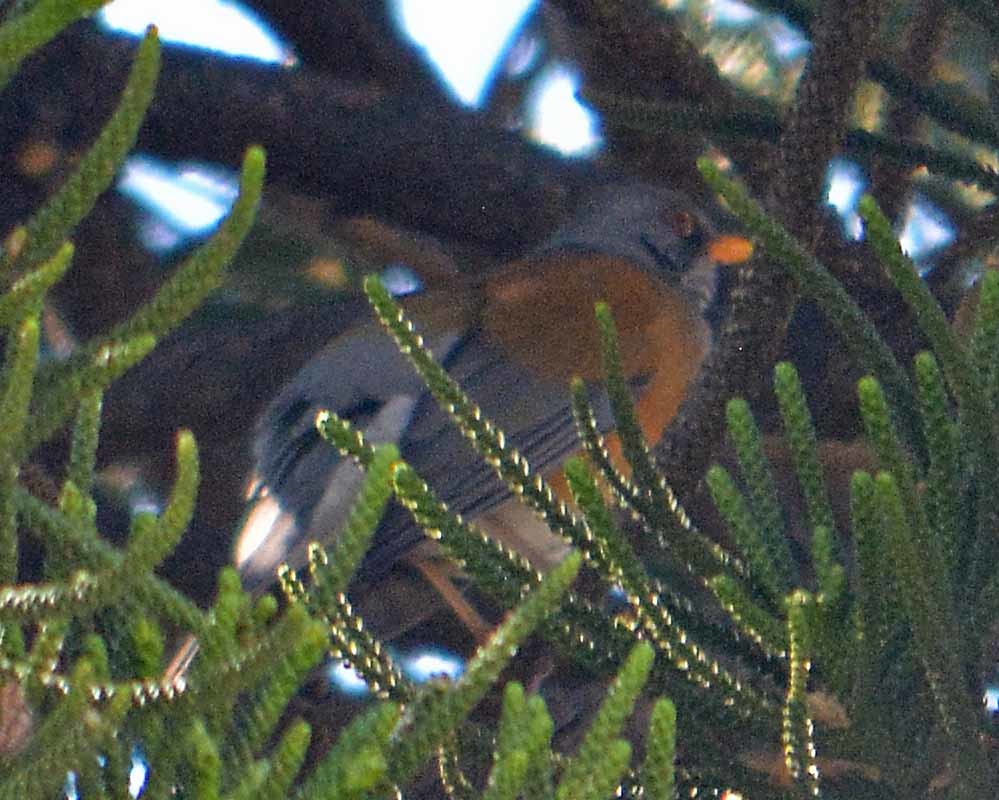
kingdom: Animalia
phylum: Chordata
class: Aves
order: Passeriformes
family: Turdidae
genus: Turdus
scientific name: Turdus rufopalliatus
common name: Rufous-backed robin
